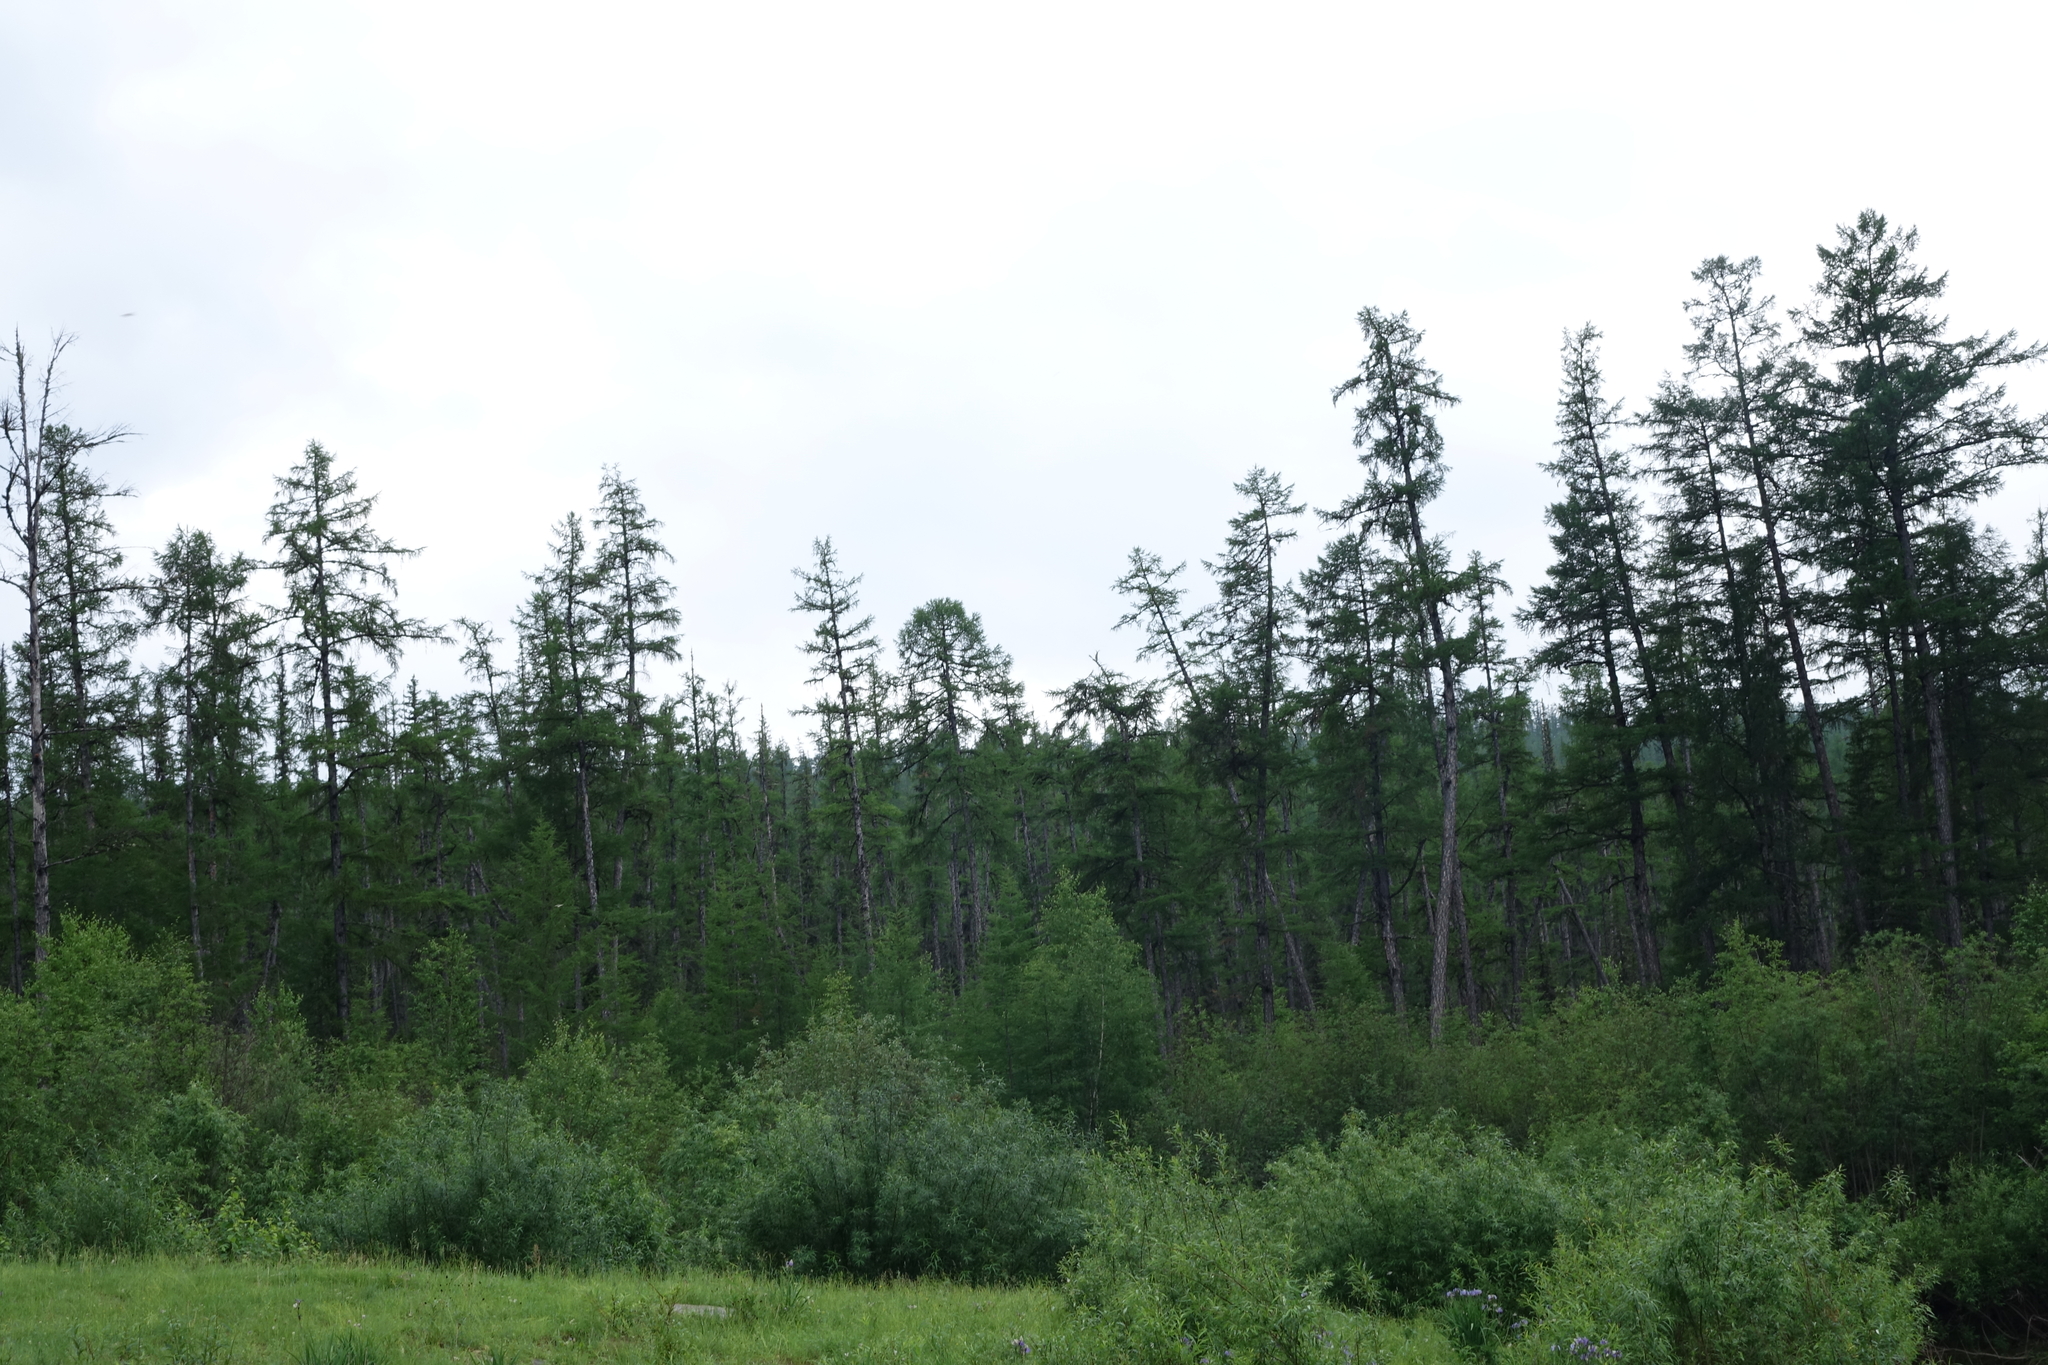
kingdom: Plantae
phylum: Tracheophyta
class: Pinopsida
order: Pinales
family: Pinaceae
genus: Larix
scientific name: Larix gmelinii
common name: Dahurian larch
